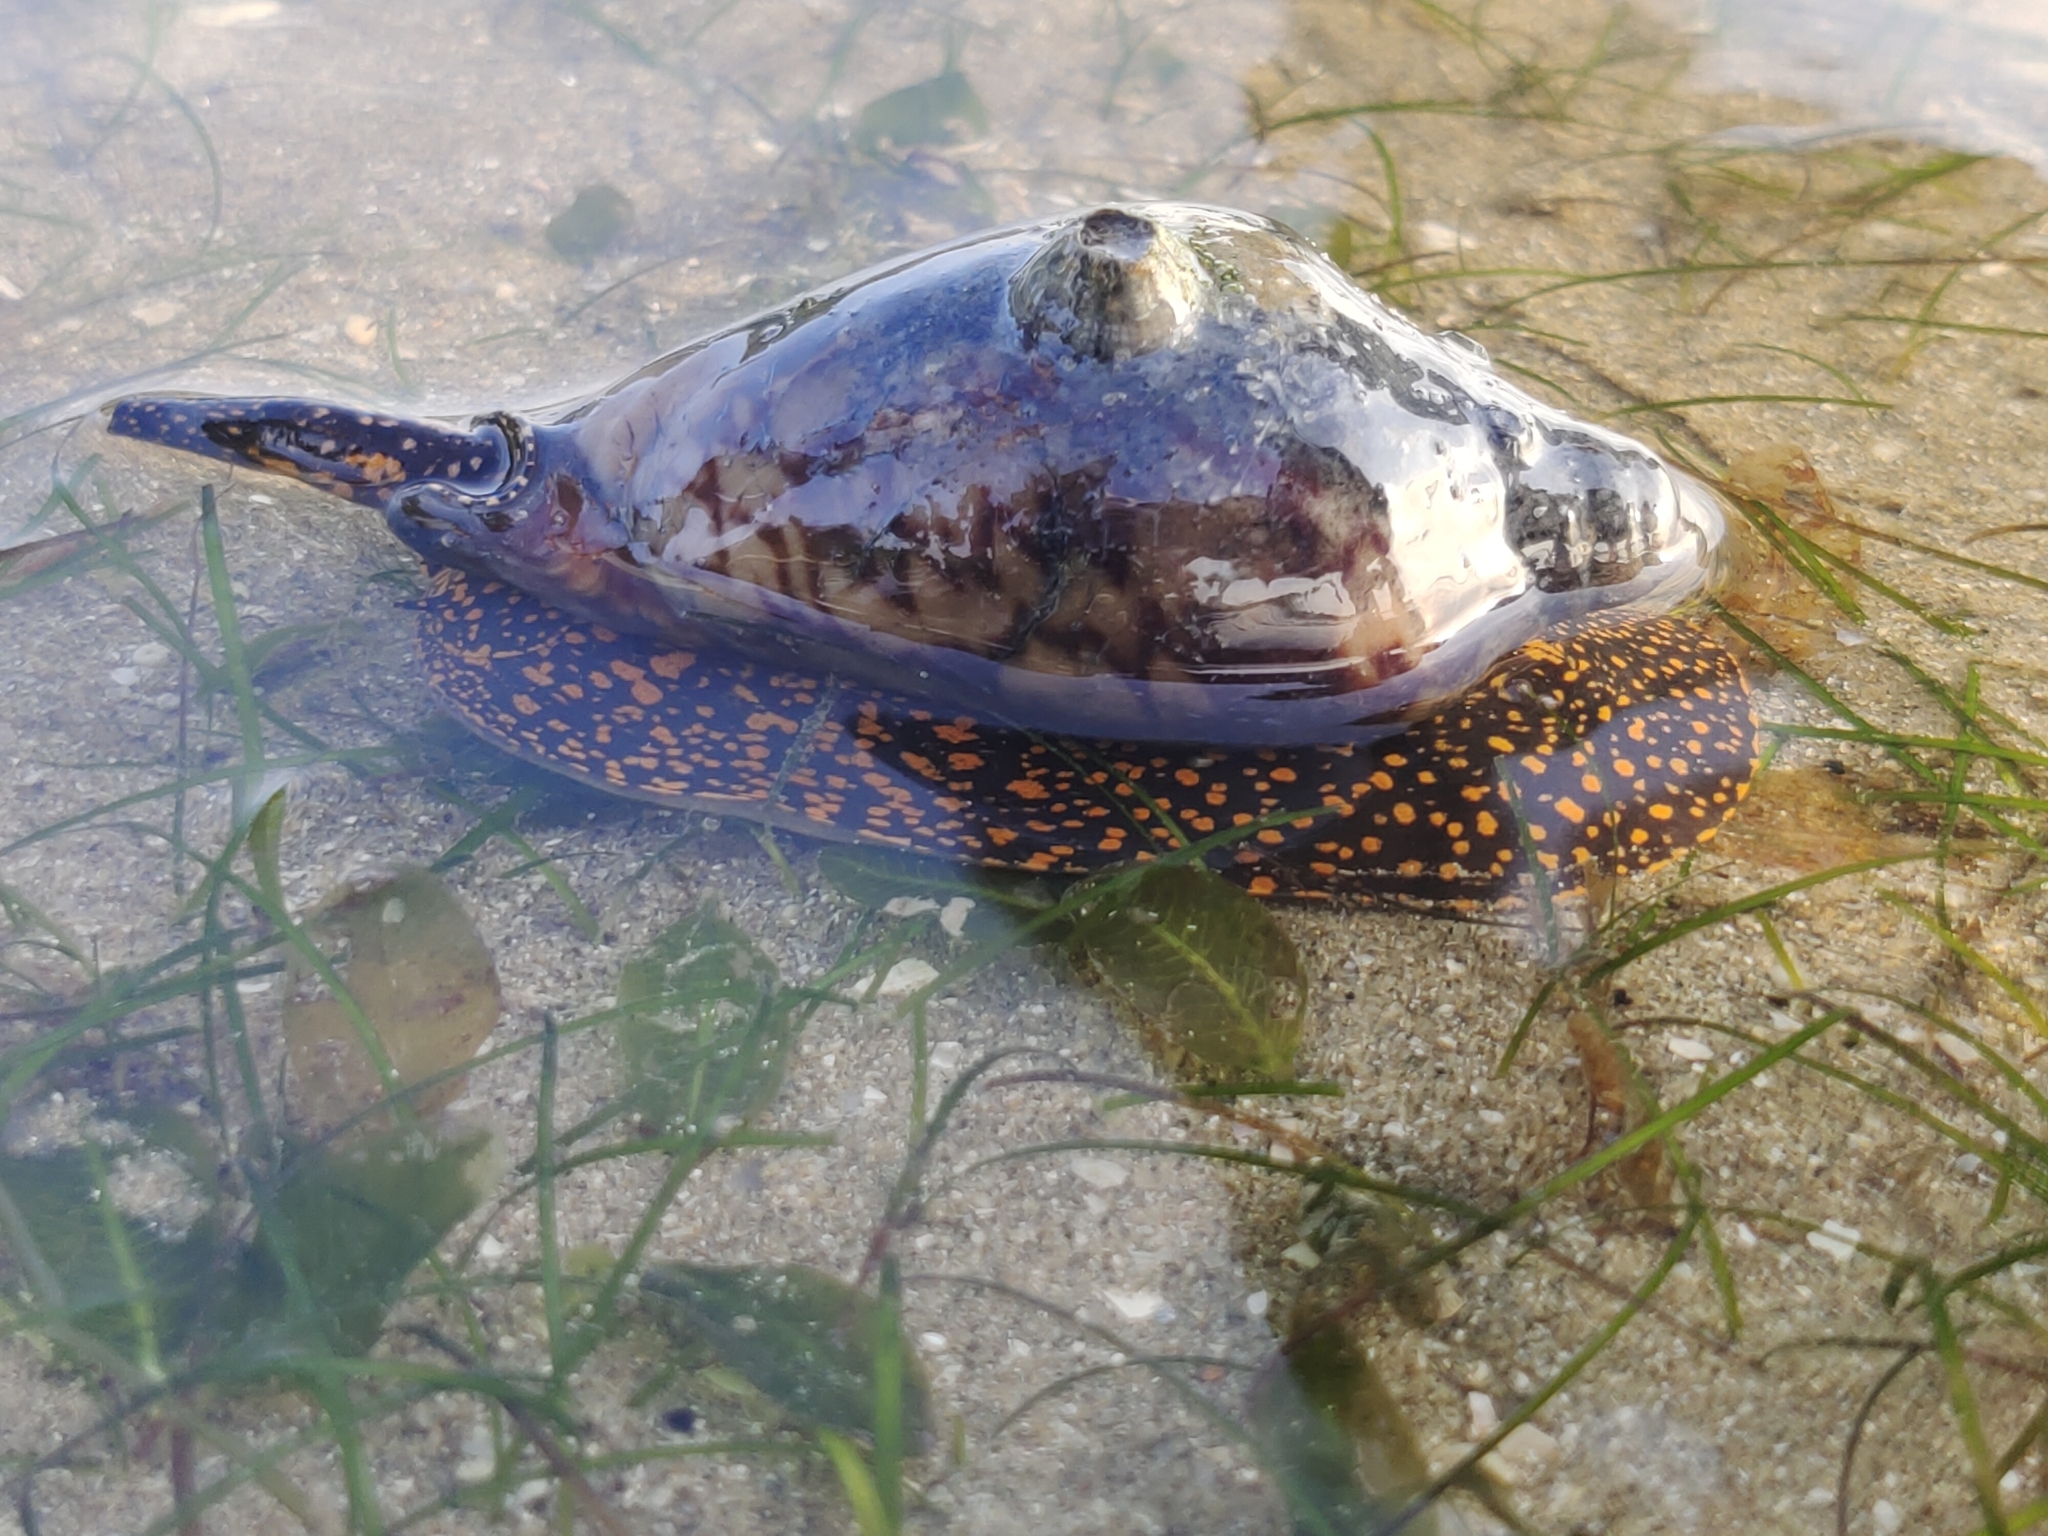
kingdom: Animalia
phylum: Mollusca
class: Gastropoda
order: Neogastropoda
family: Volutidae
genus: Cymbiola
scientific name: Cymbiola nobilis
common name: Noble volute
